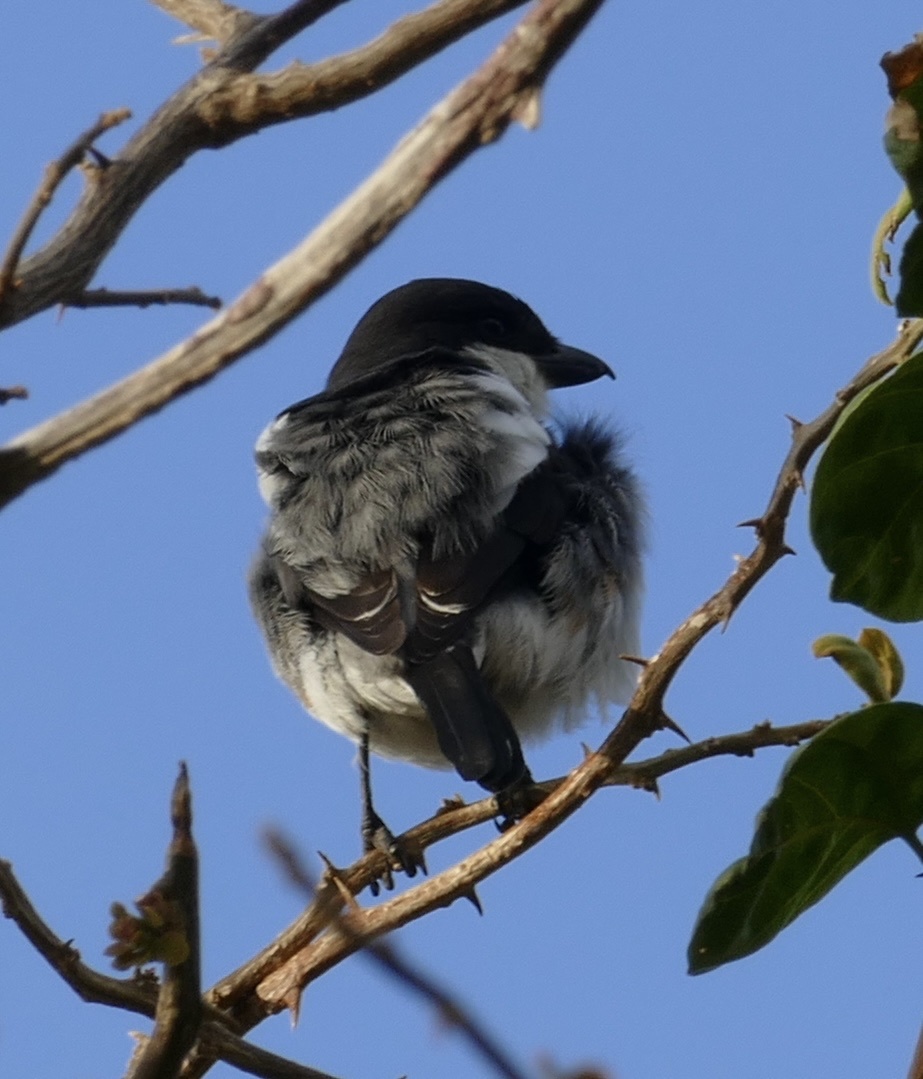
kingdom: Animalia
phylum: Chordata
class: Aves
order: Passeriformes
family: Laniidae
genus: Lanius
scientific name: Lanius collaris
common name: Southern fiscal
